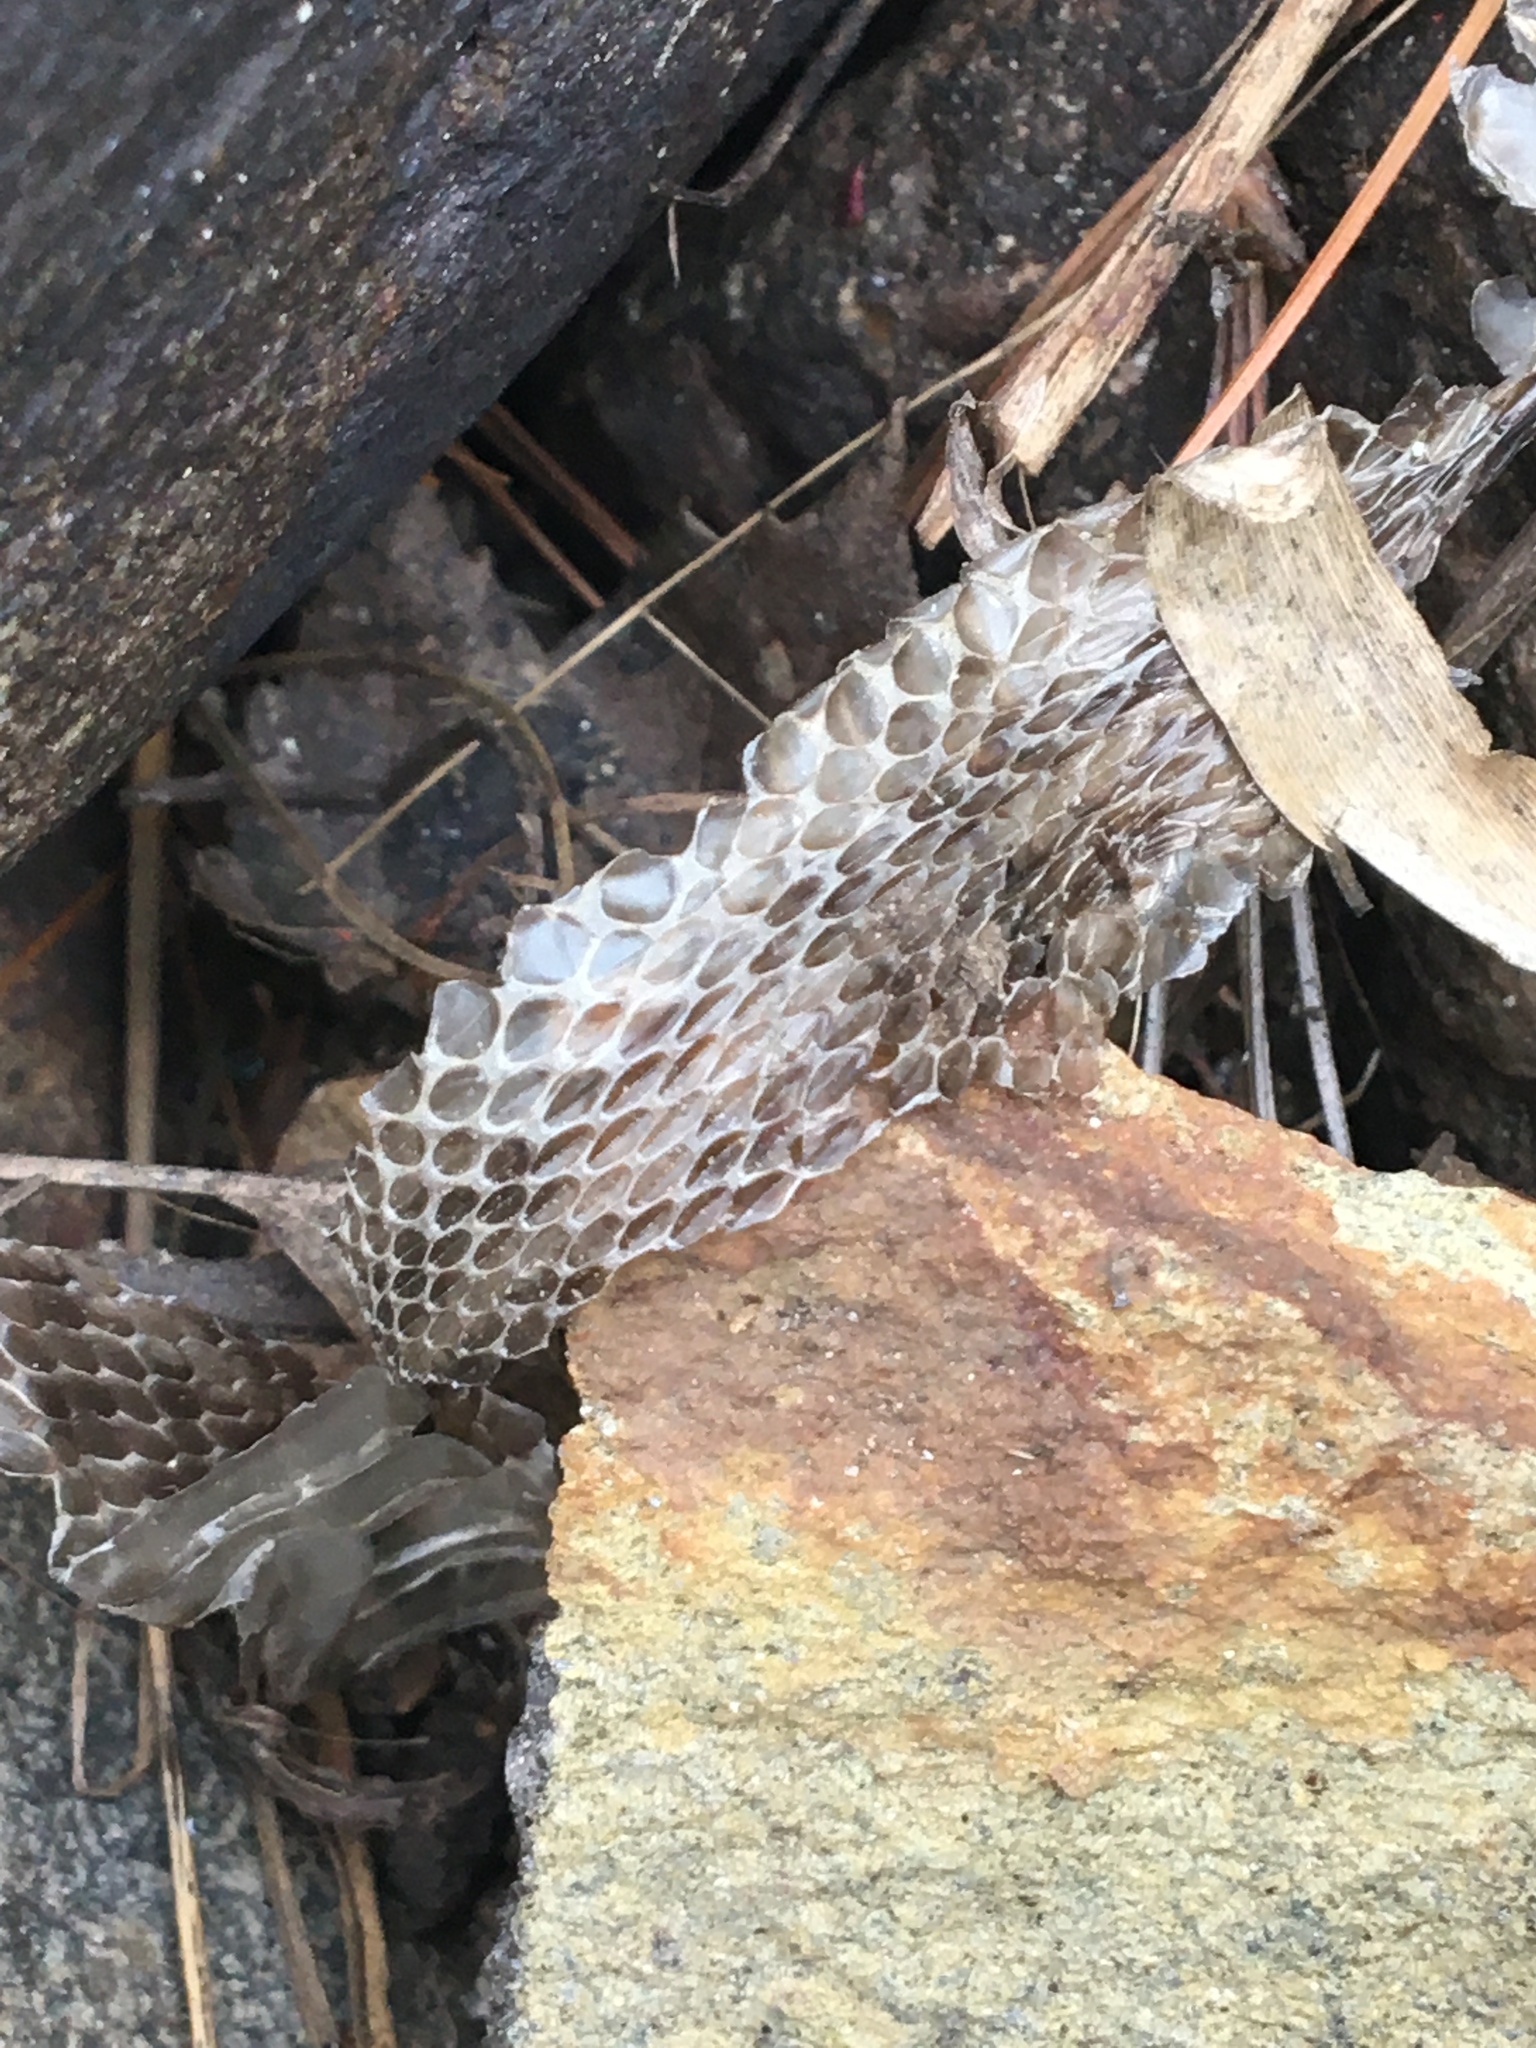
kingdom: Animalia
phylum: Chordata
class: Squamata
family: Colubridae
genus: Thamnophis
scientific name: Thamnophis sirtalis
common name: Common garter snake
